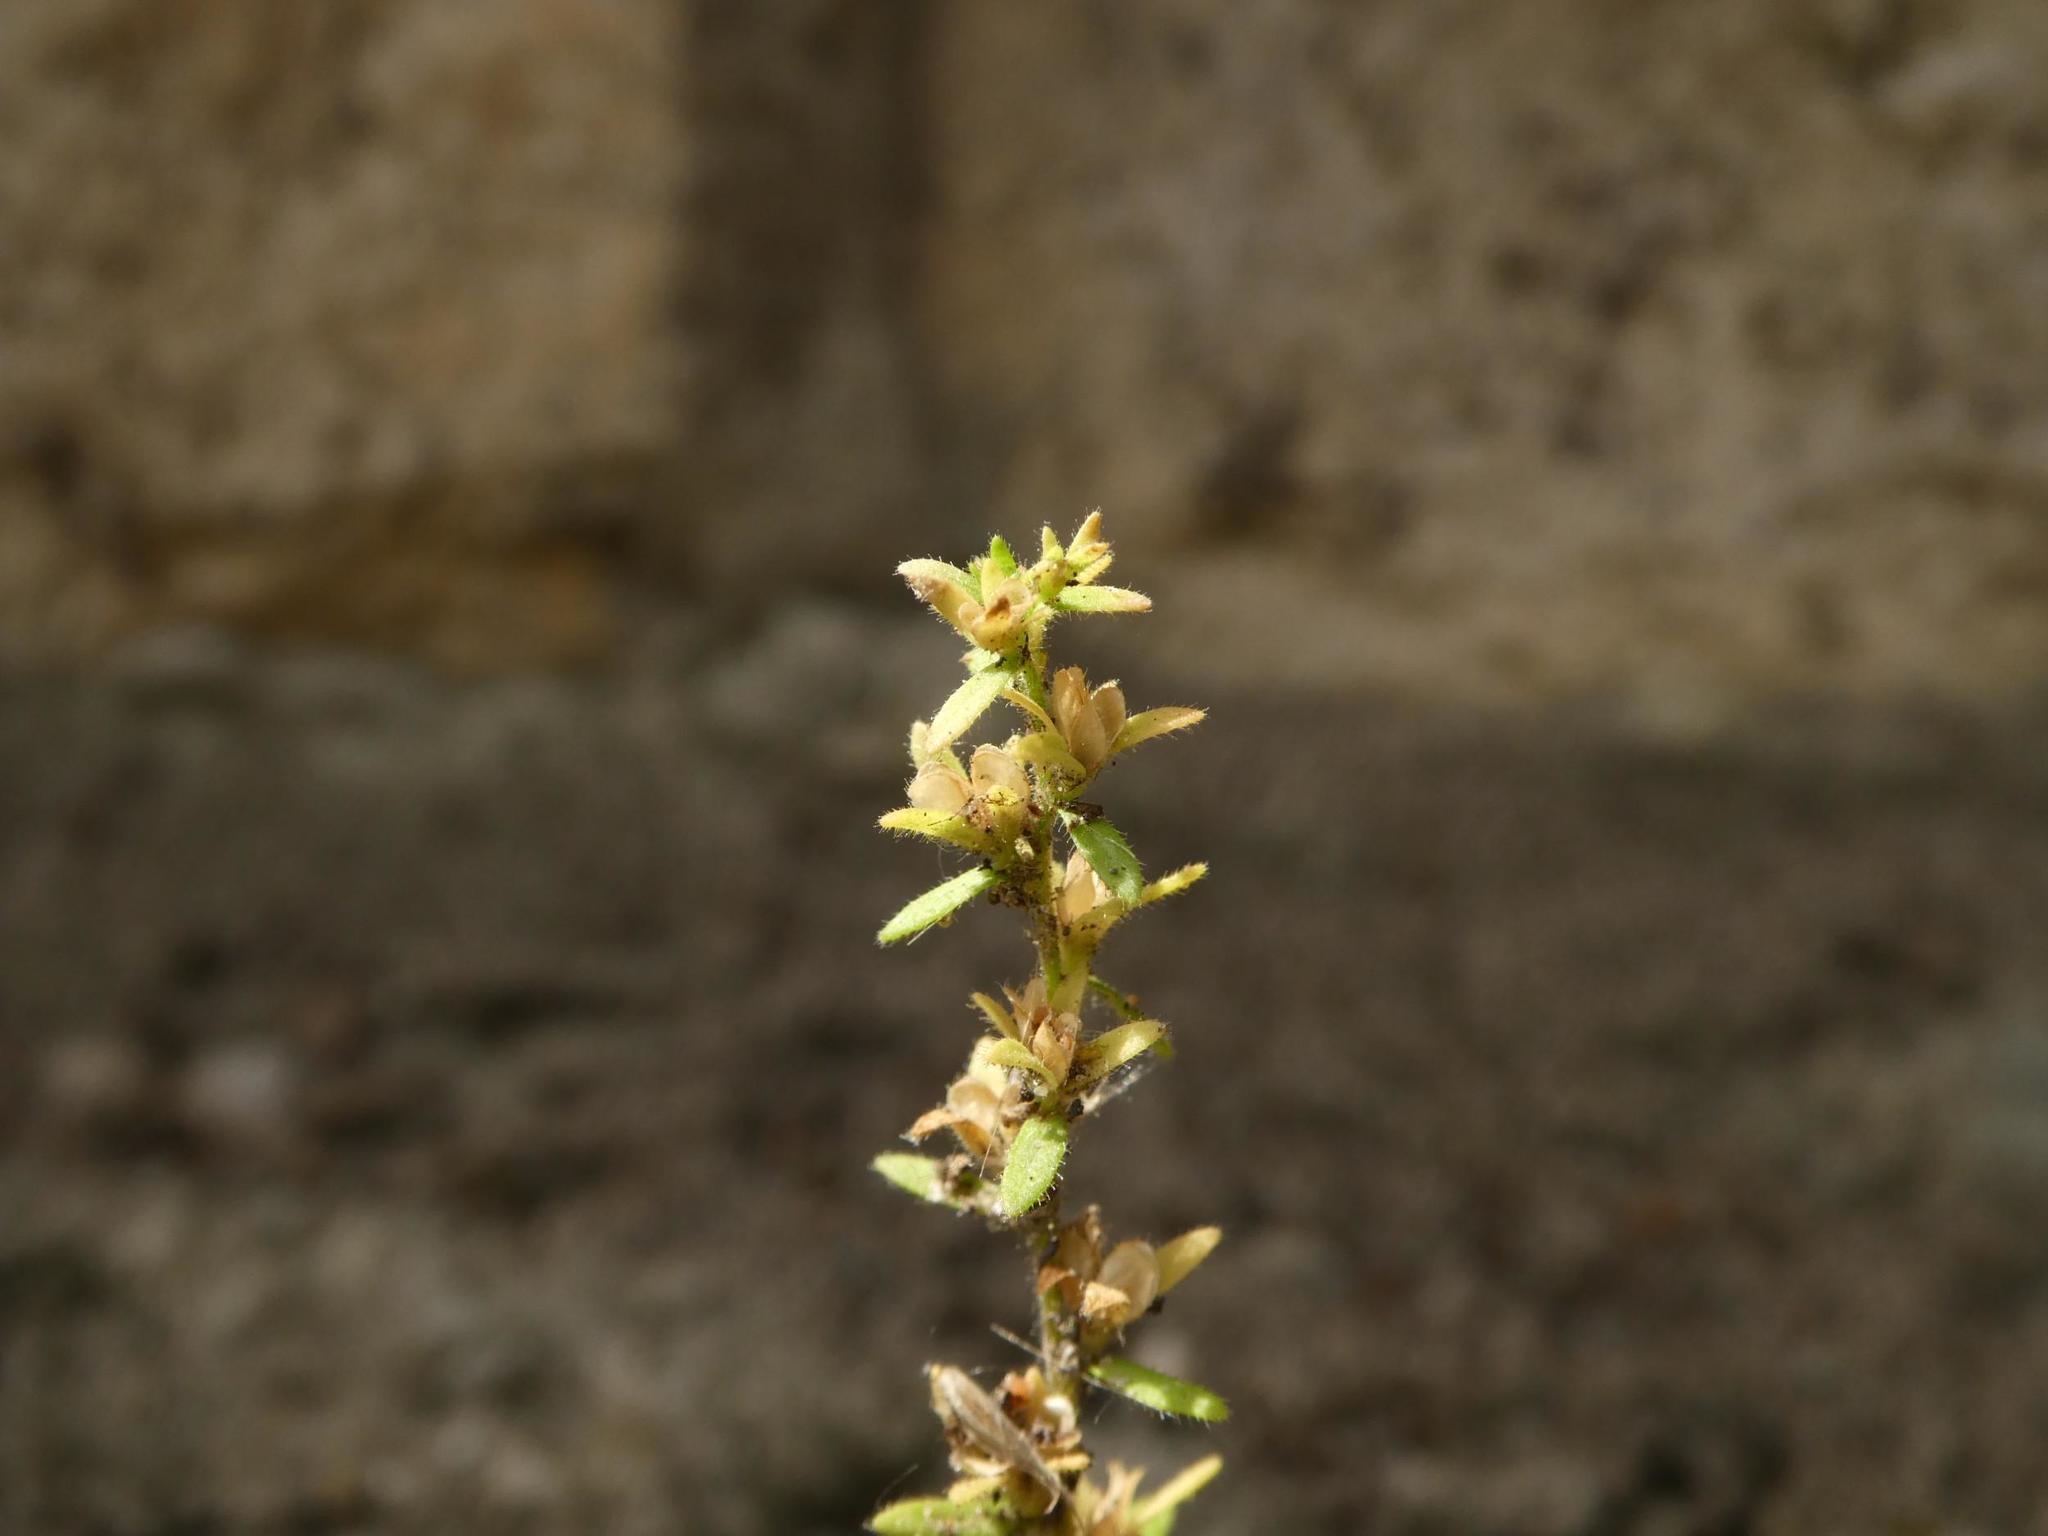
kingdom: Plantae
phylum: Tracheophyta
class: Magnoliopsida
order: Lamiales
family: Plantaginaceae
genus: Veronica
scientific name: Veronica arvensis
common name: Corn speedwell
